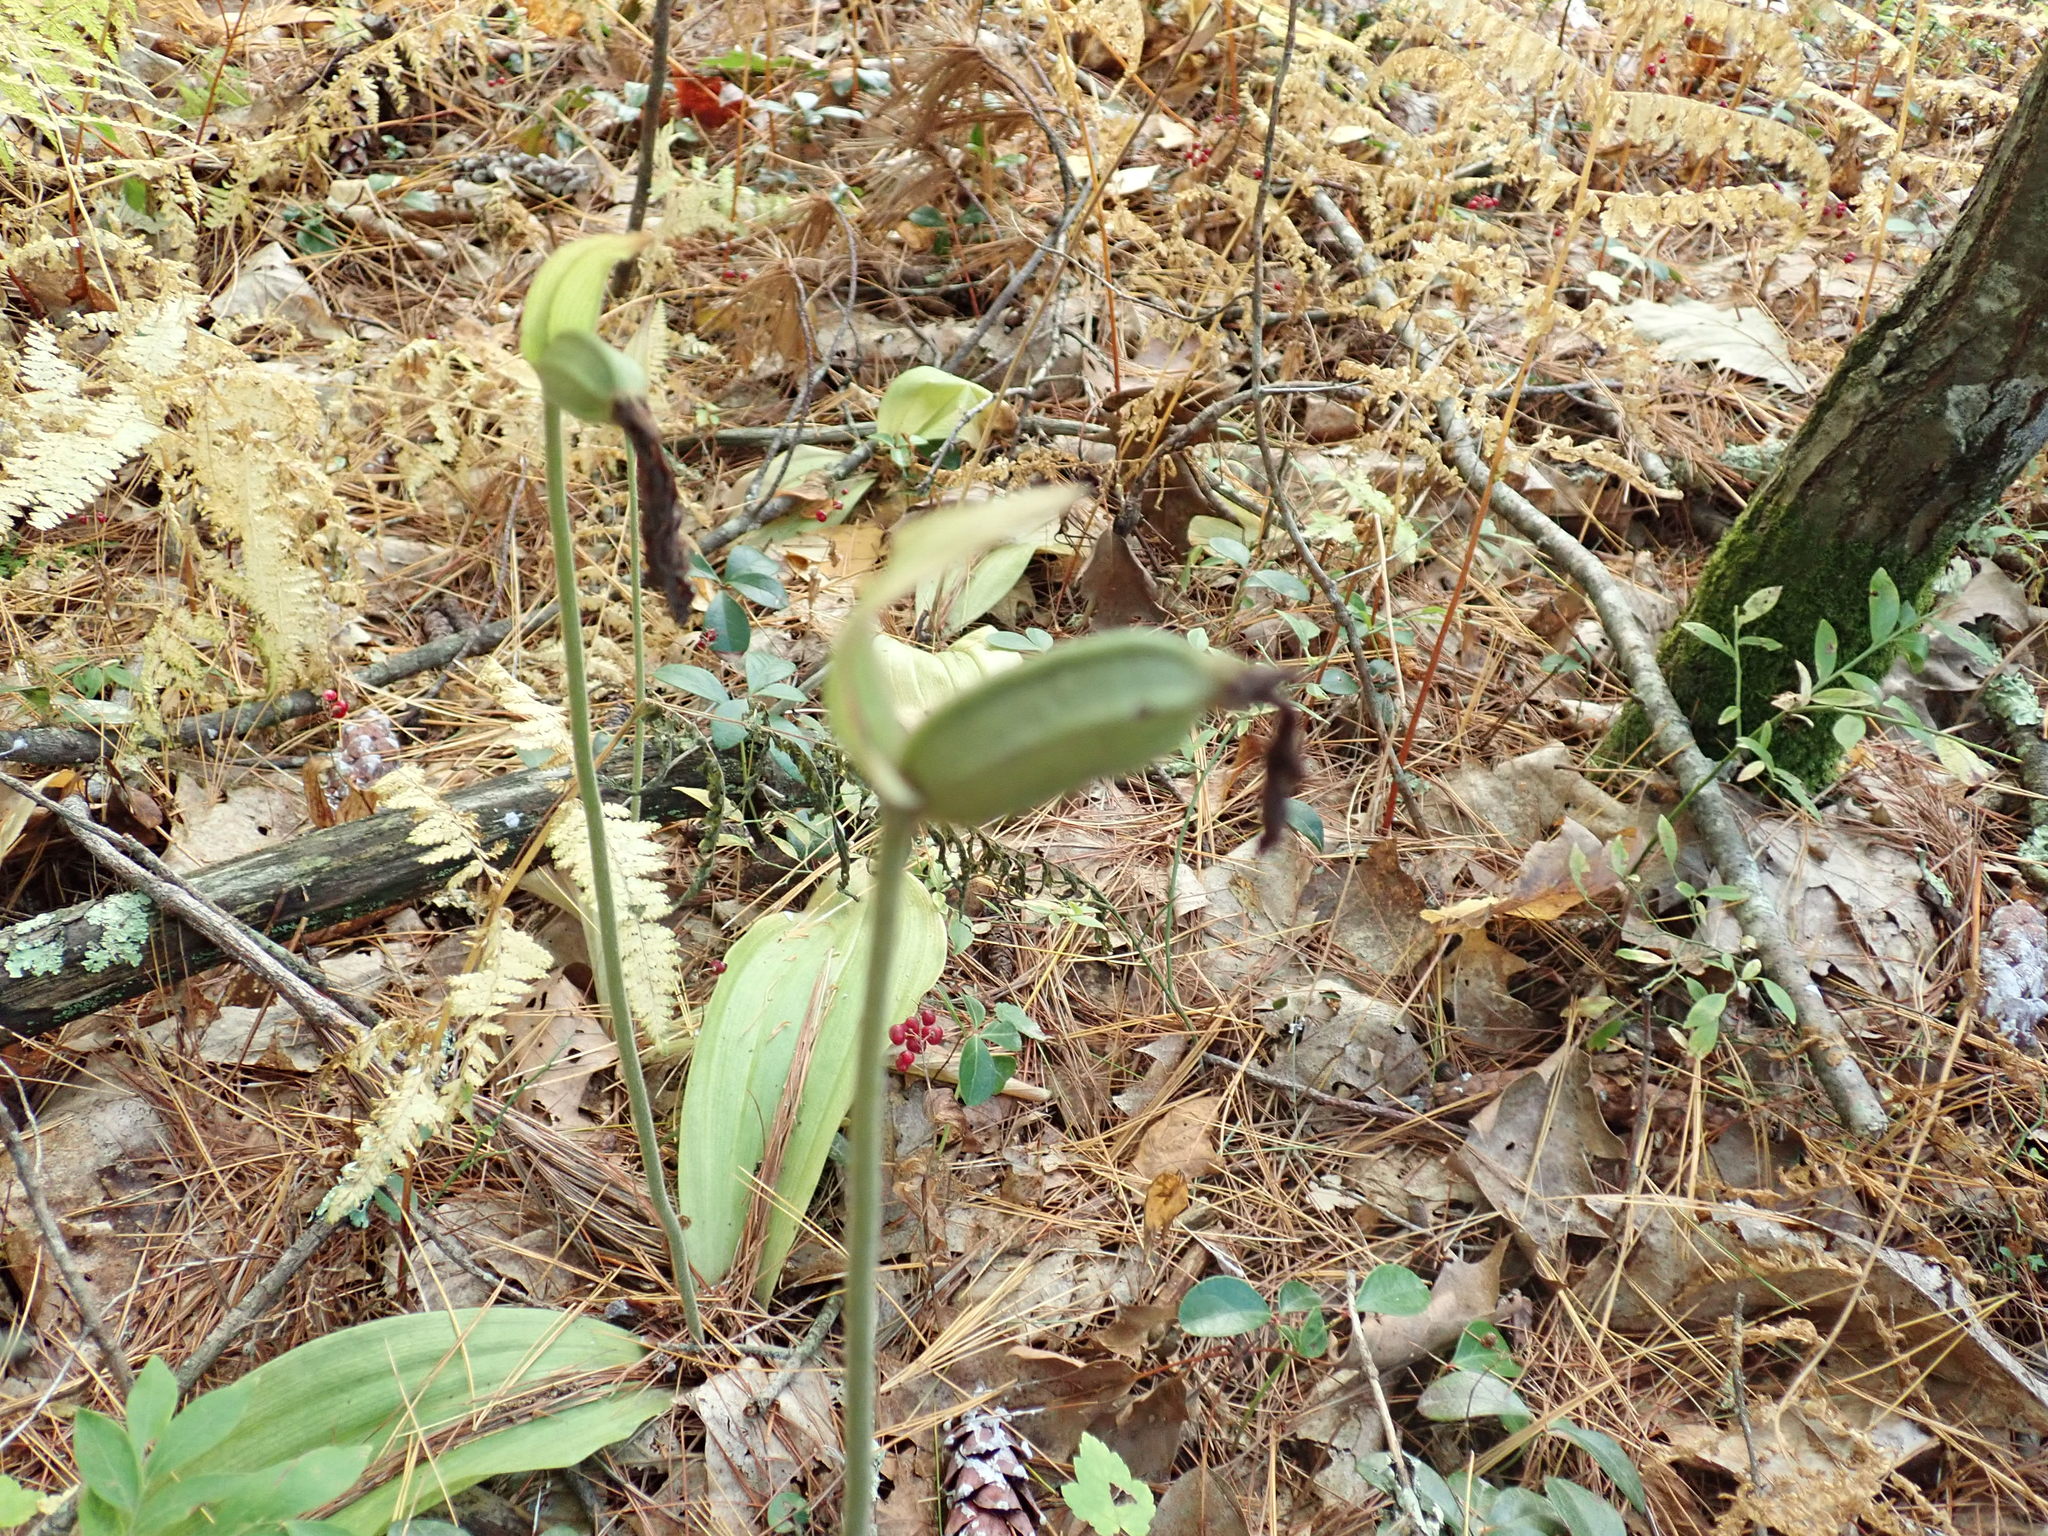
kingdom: Plantae
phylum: Tracheophyta
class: Liliopsida
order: Asparagales
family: Orchidaceae
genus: Cypripedium
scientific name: Cypripedium acaule
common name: Pink lady's-slipper
